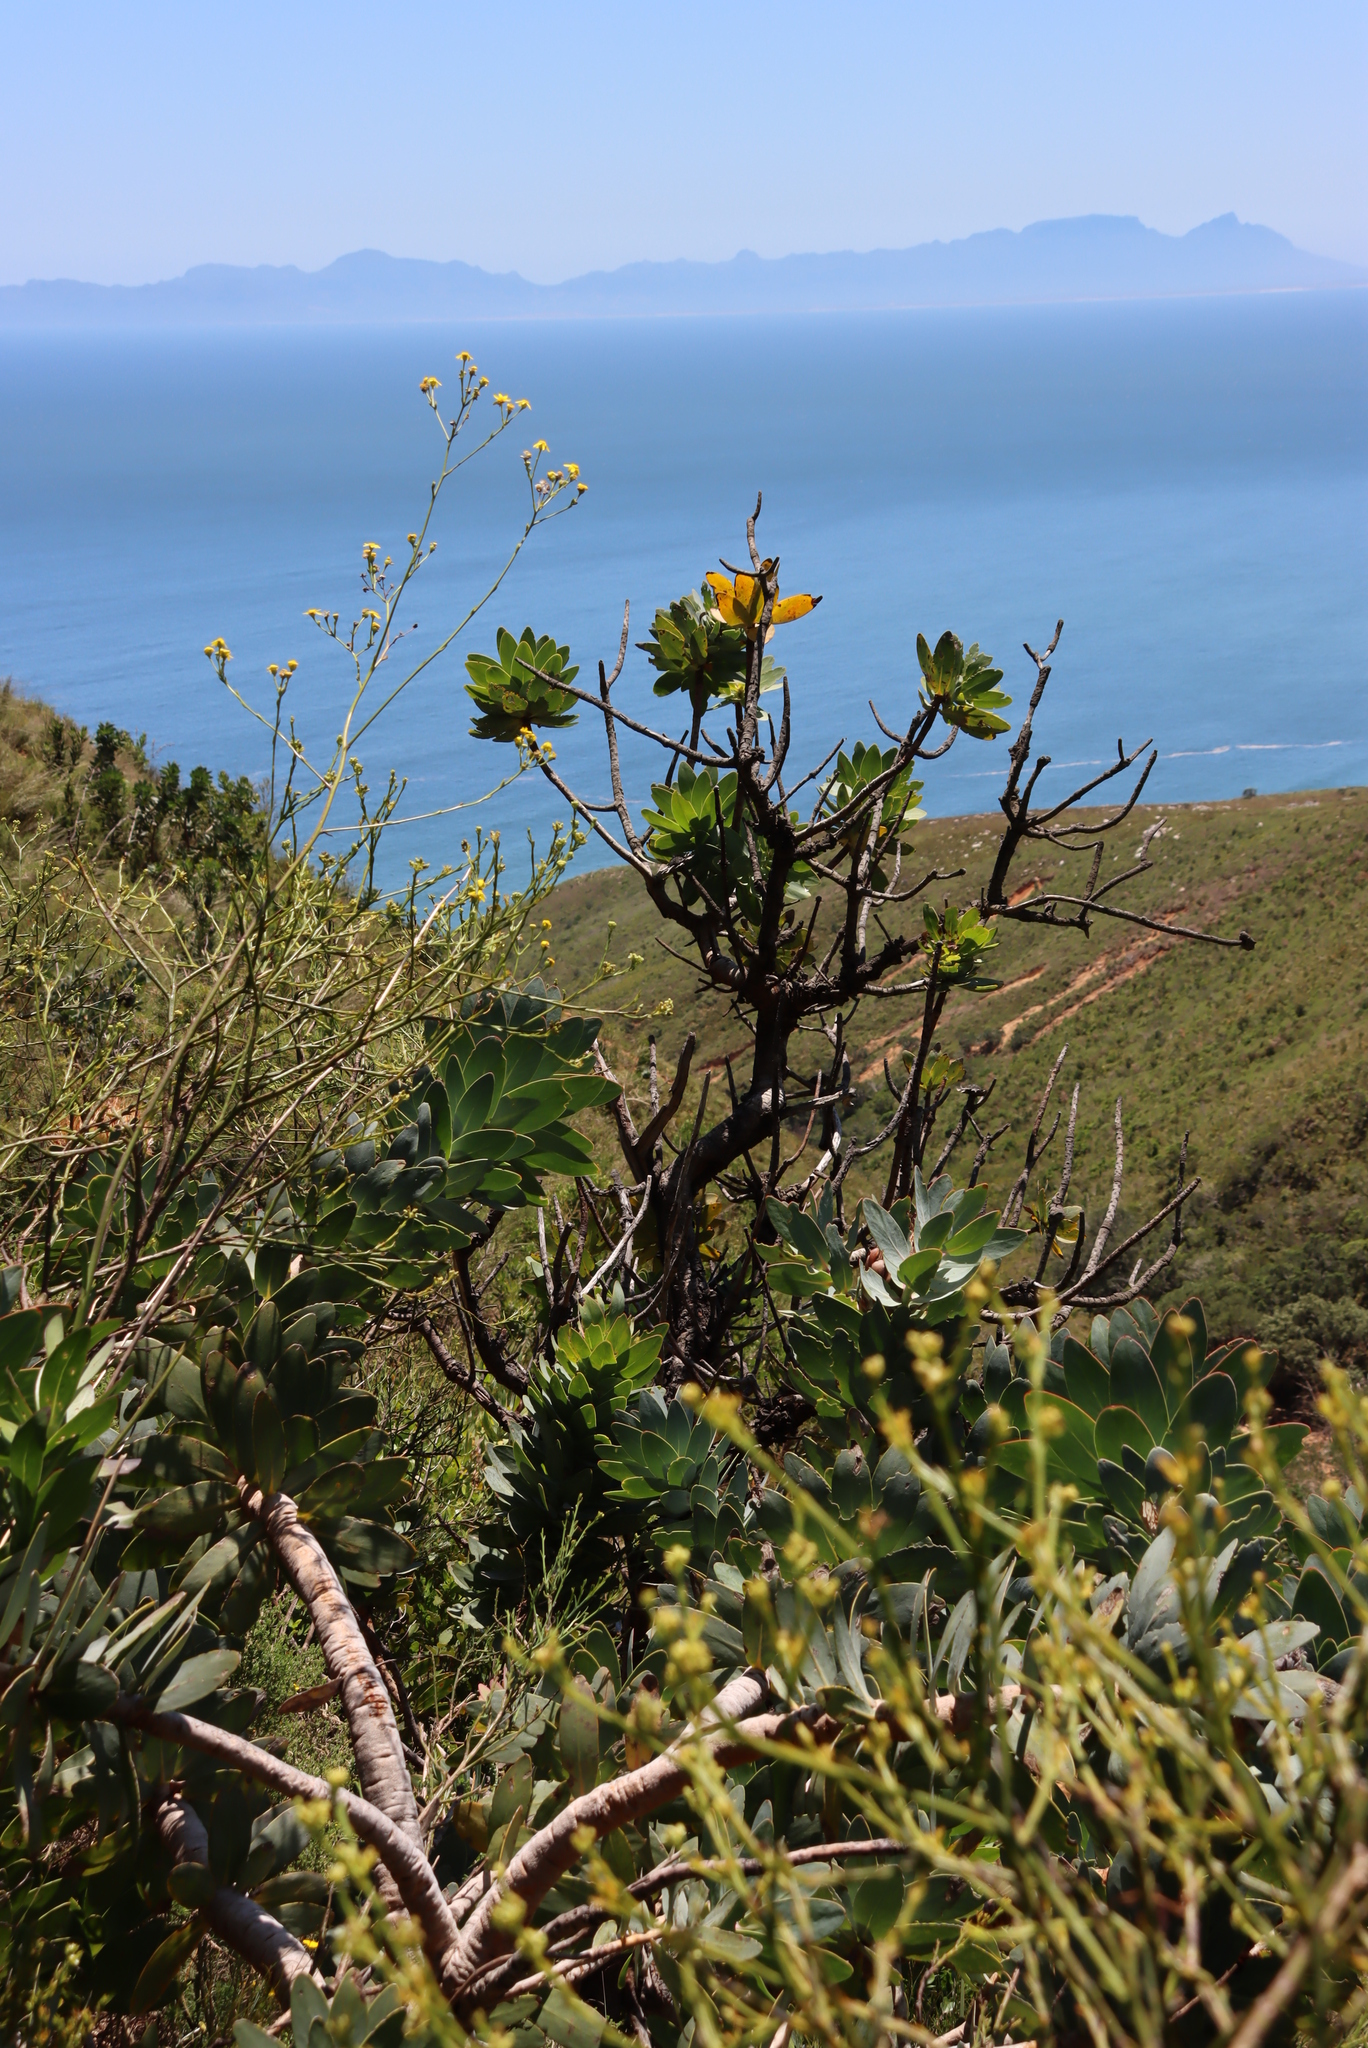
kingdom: Plantae
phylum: Tracheophyta
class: Magnoliopsida
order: Proteales
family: Proteaceae
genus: Protea
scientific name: Protea nitida
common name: Tree protea
